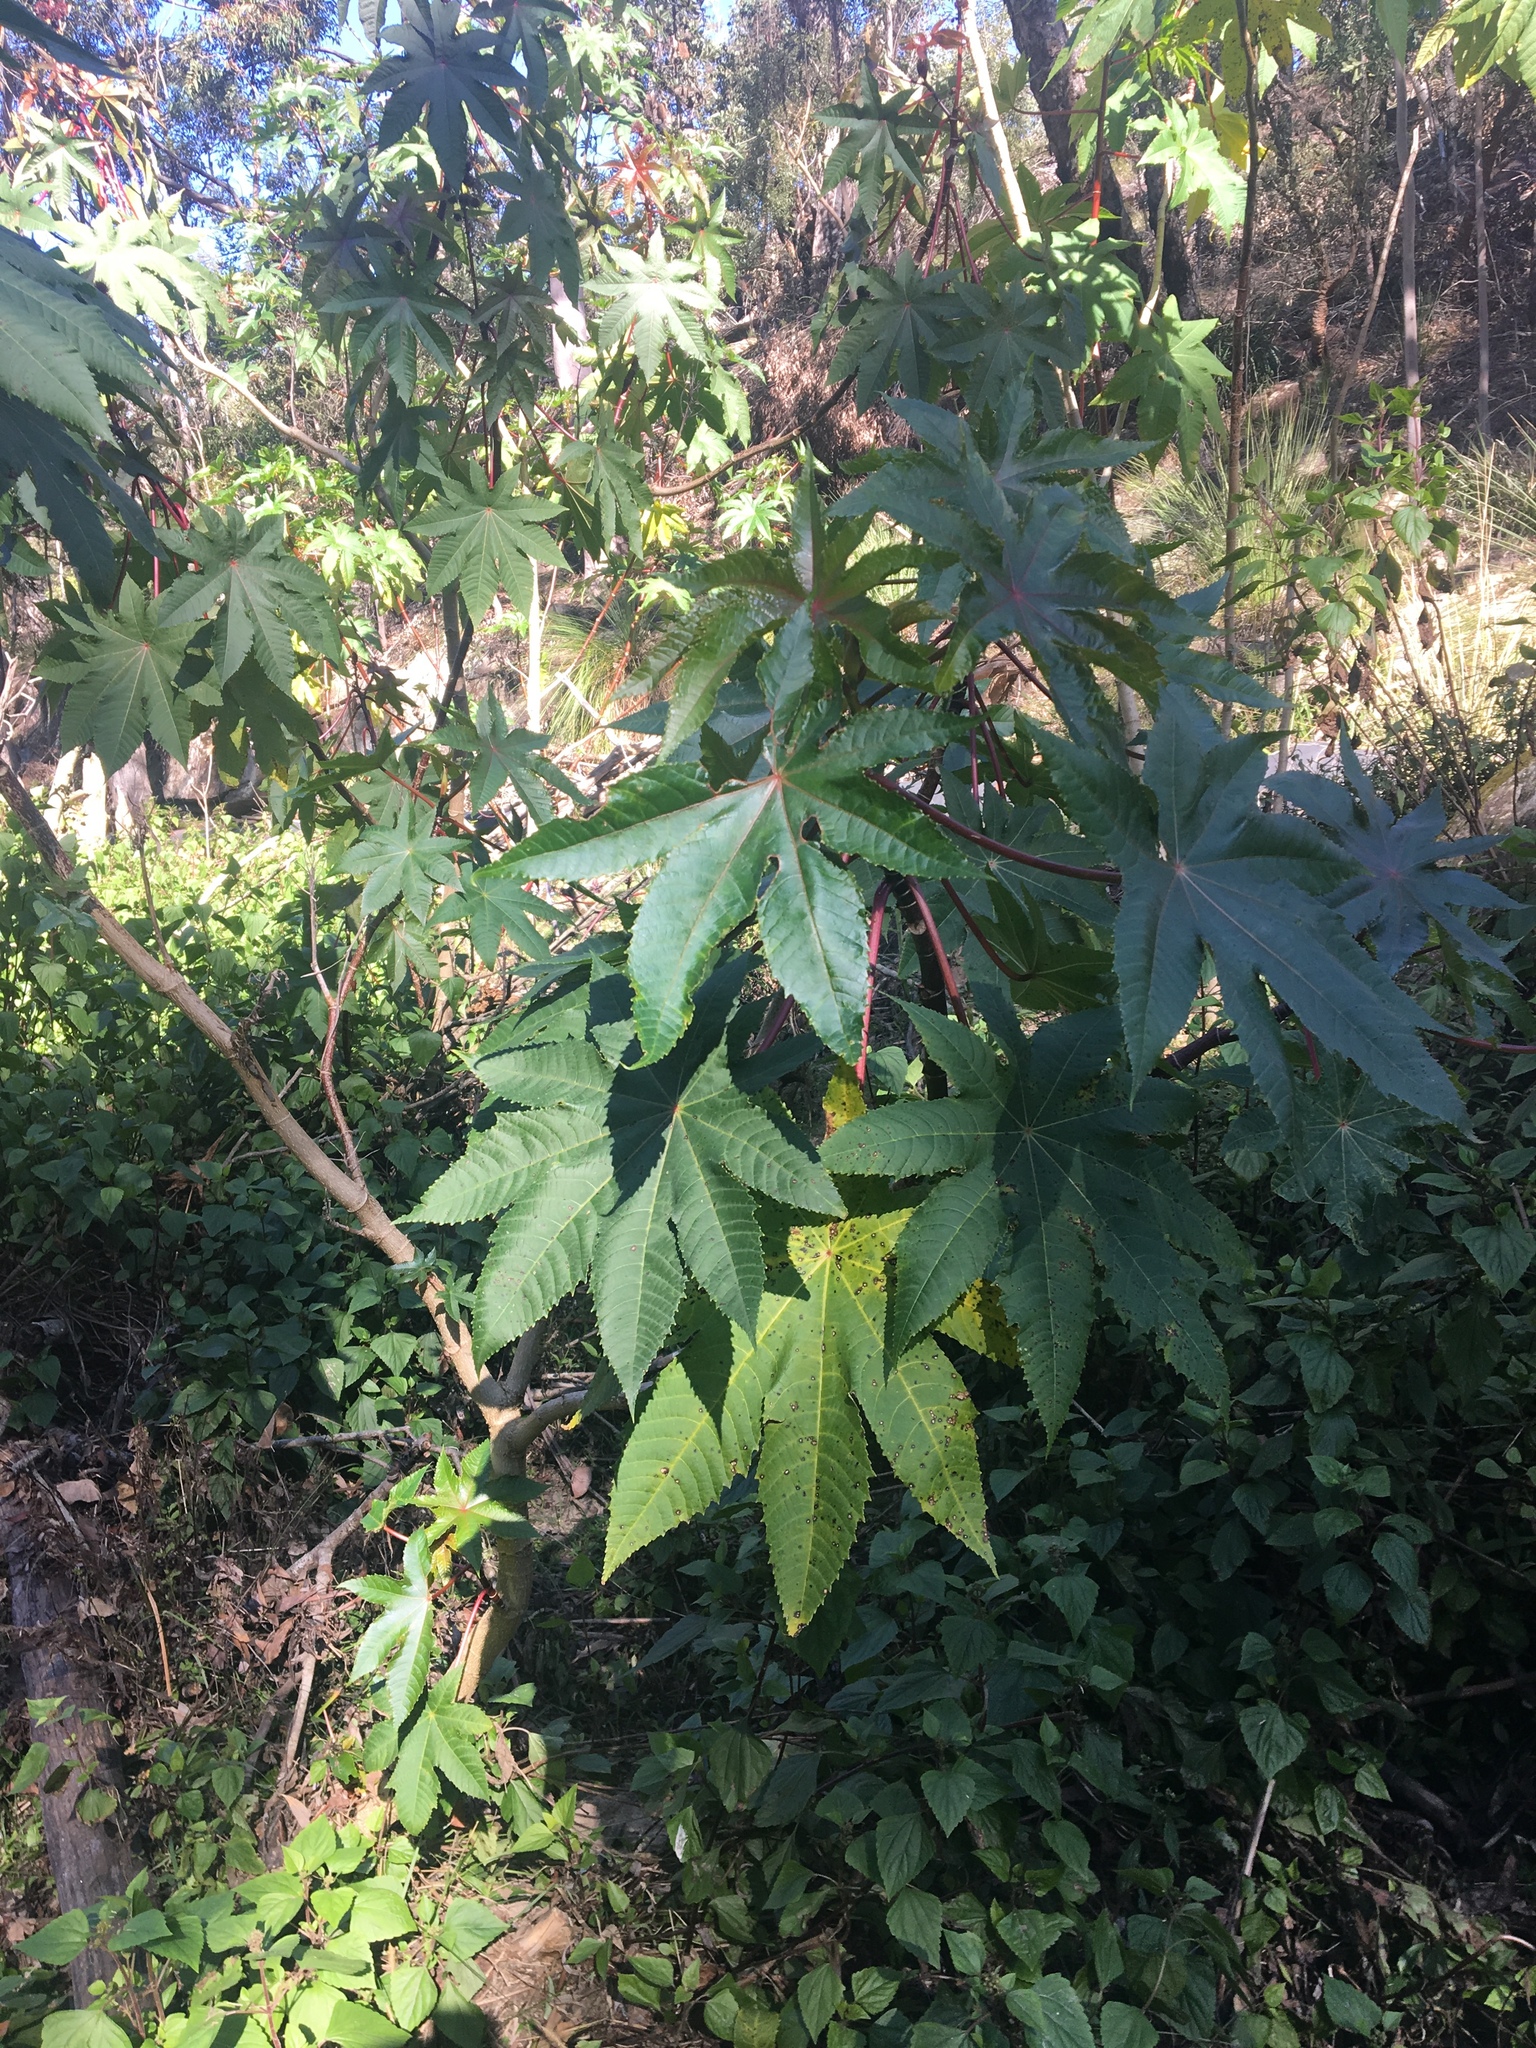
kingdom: Plantae
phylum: Tracheophyta
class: Magnoliopsida
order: Malpighiales
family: Euphorbiaceae
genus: Ricinus
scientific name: Ricinus communis
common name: Castor-oil-plant
